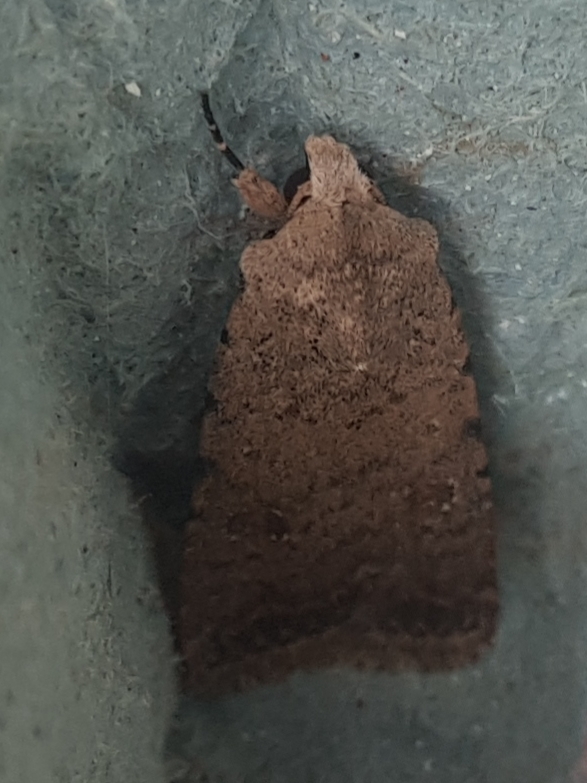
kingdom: Animalia
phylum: Arthropoda
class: Insecta
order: Lepidoptera
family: Noctuidae
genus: Caradrina
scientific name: Caradrina clavipalpis
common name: Pale mottled willow
